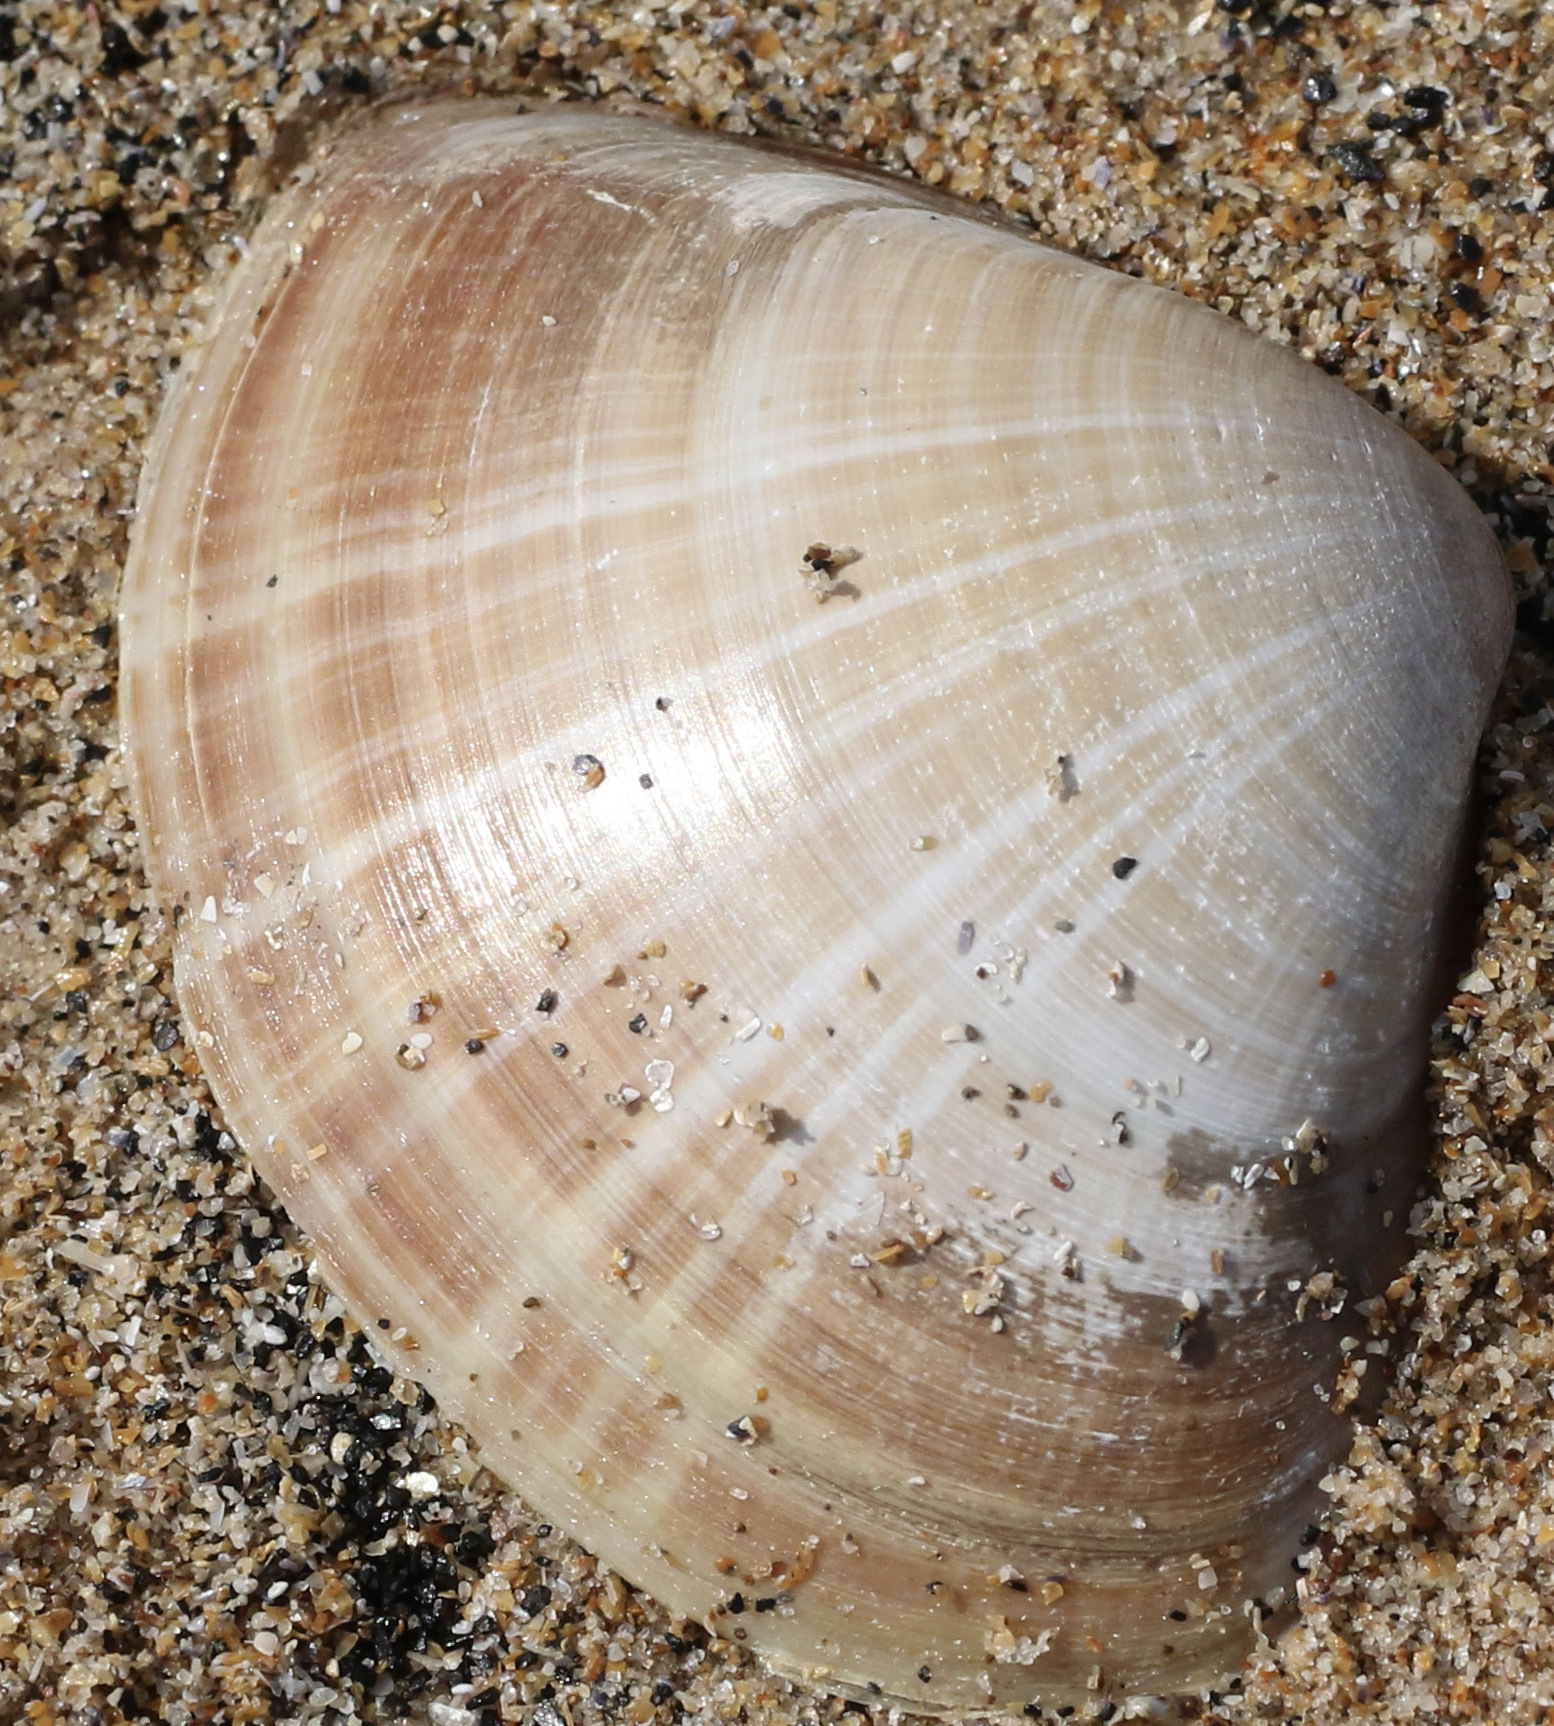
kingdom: Animalia
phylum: Mollusca
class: Bivalvia
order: Venerida
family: Mactridae
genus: Mactra
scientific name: Mactra stultorum
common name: Rayed trough shell
